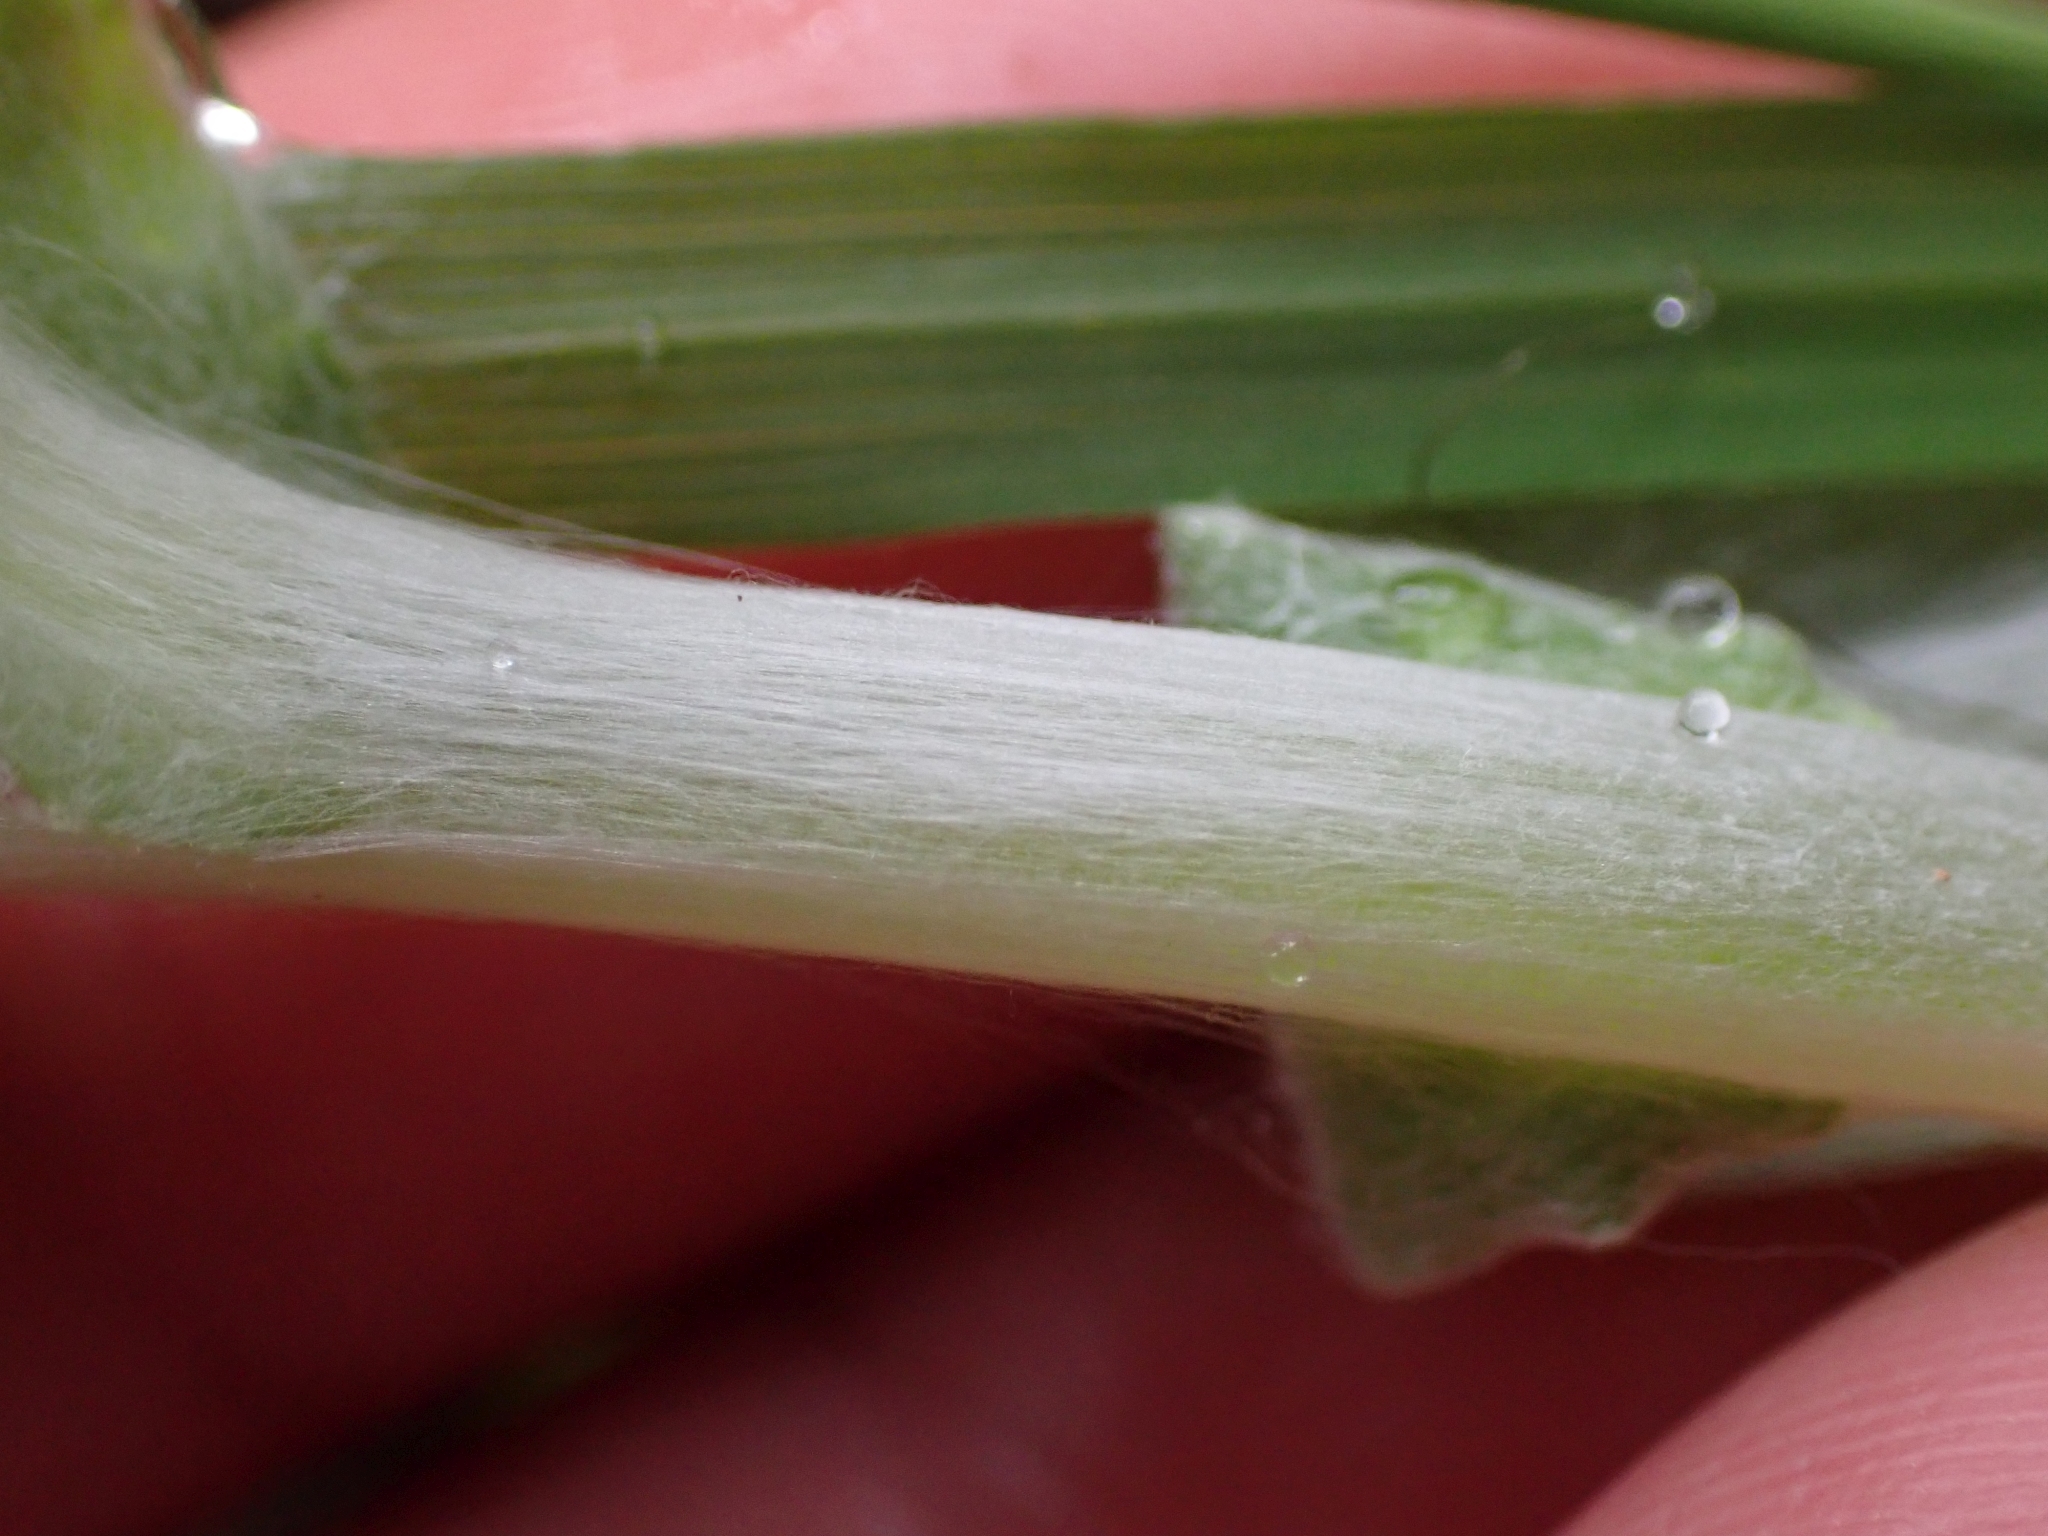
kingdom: Plantae
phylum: Tracheophyta
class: Magnoliopsida
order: Asterales
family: Asteraceae
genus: Anaphalis
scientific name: Anaphalis margaritacea
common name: Pearly everlasting
